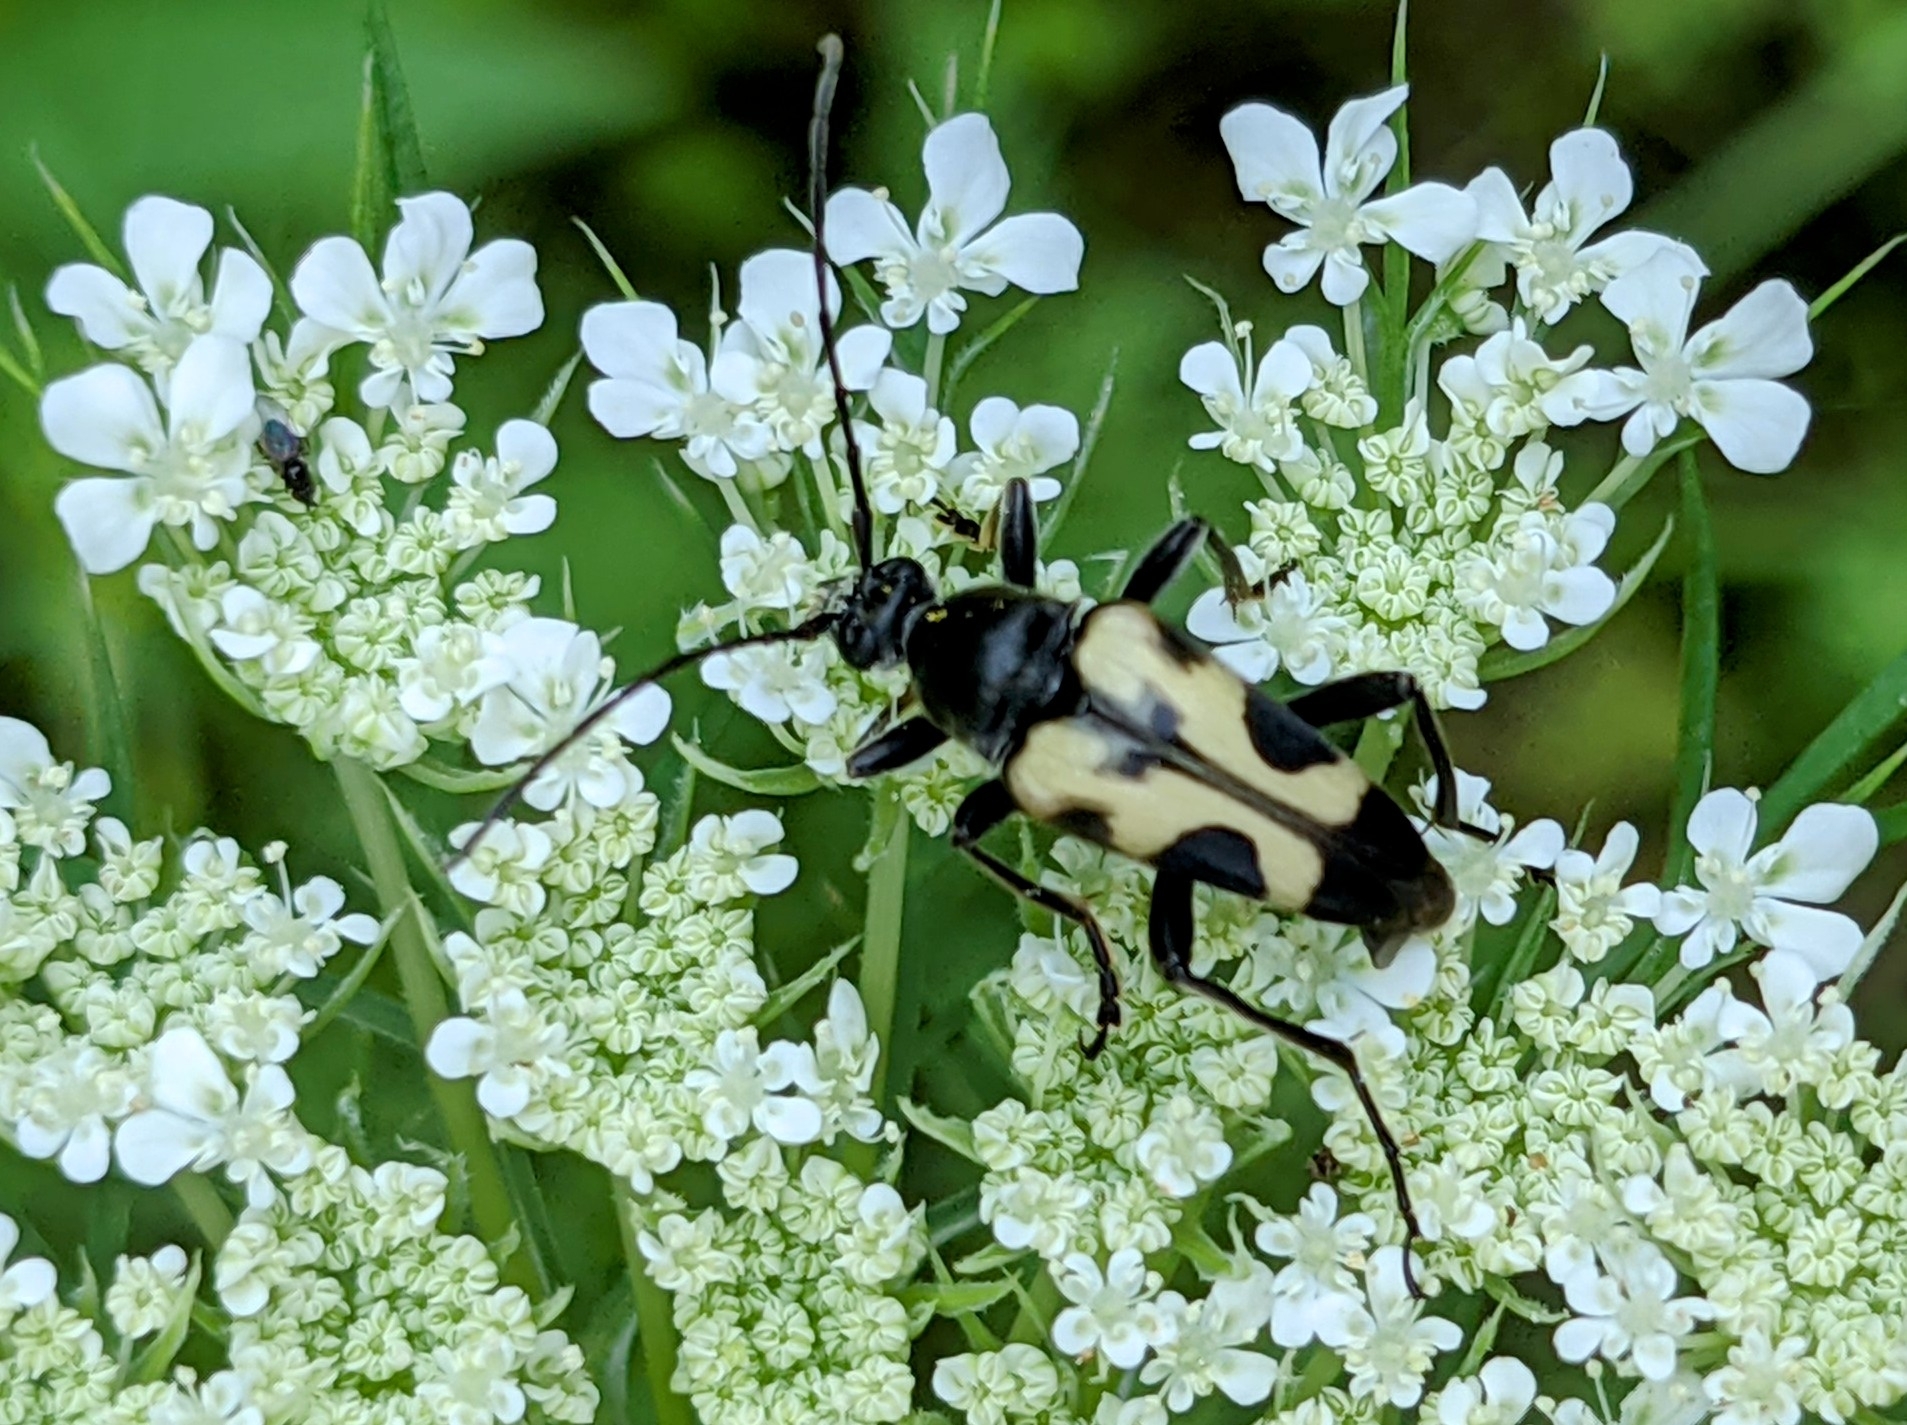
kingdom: Animalia
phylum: Arthropoda
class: Insecta
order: Coleoptera
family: Cerambycidae
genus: Judolia
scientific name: Judolia cordifera
